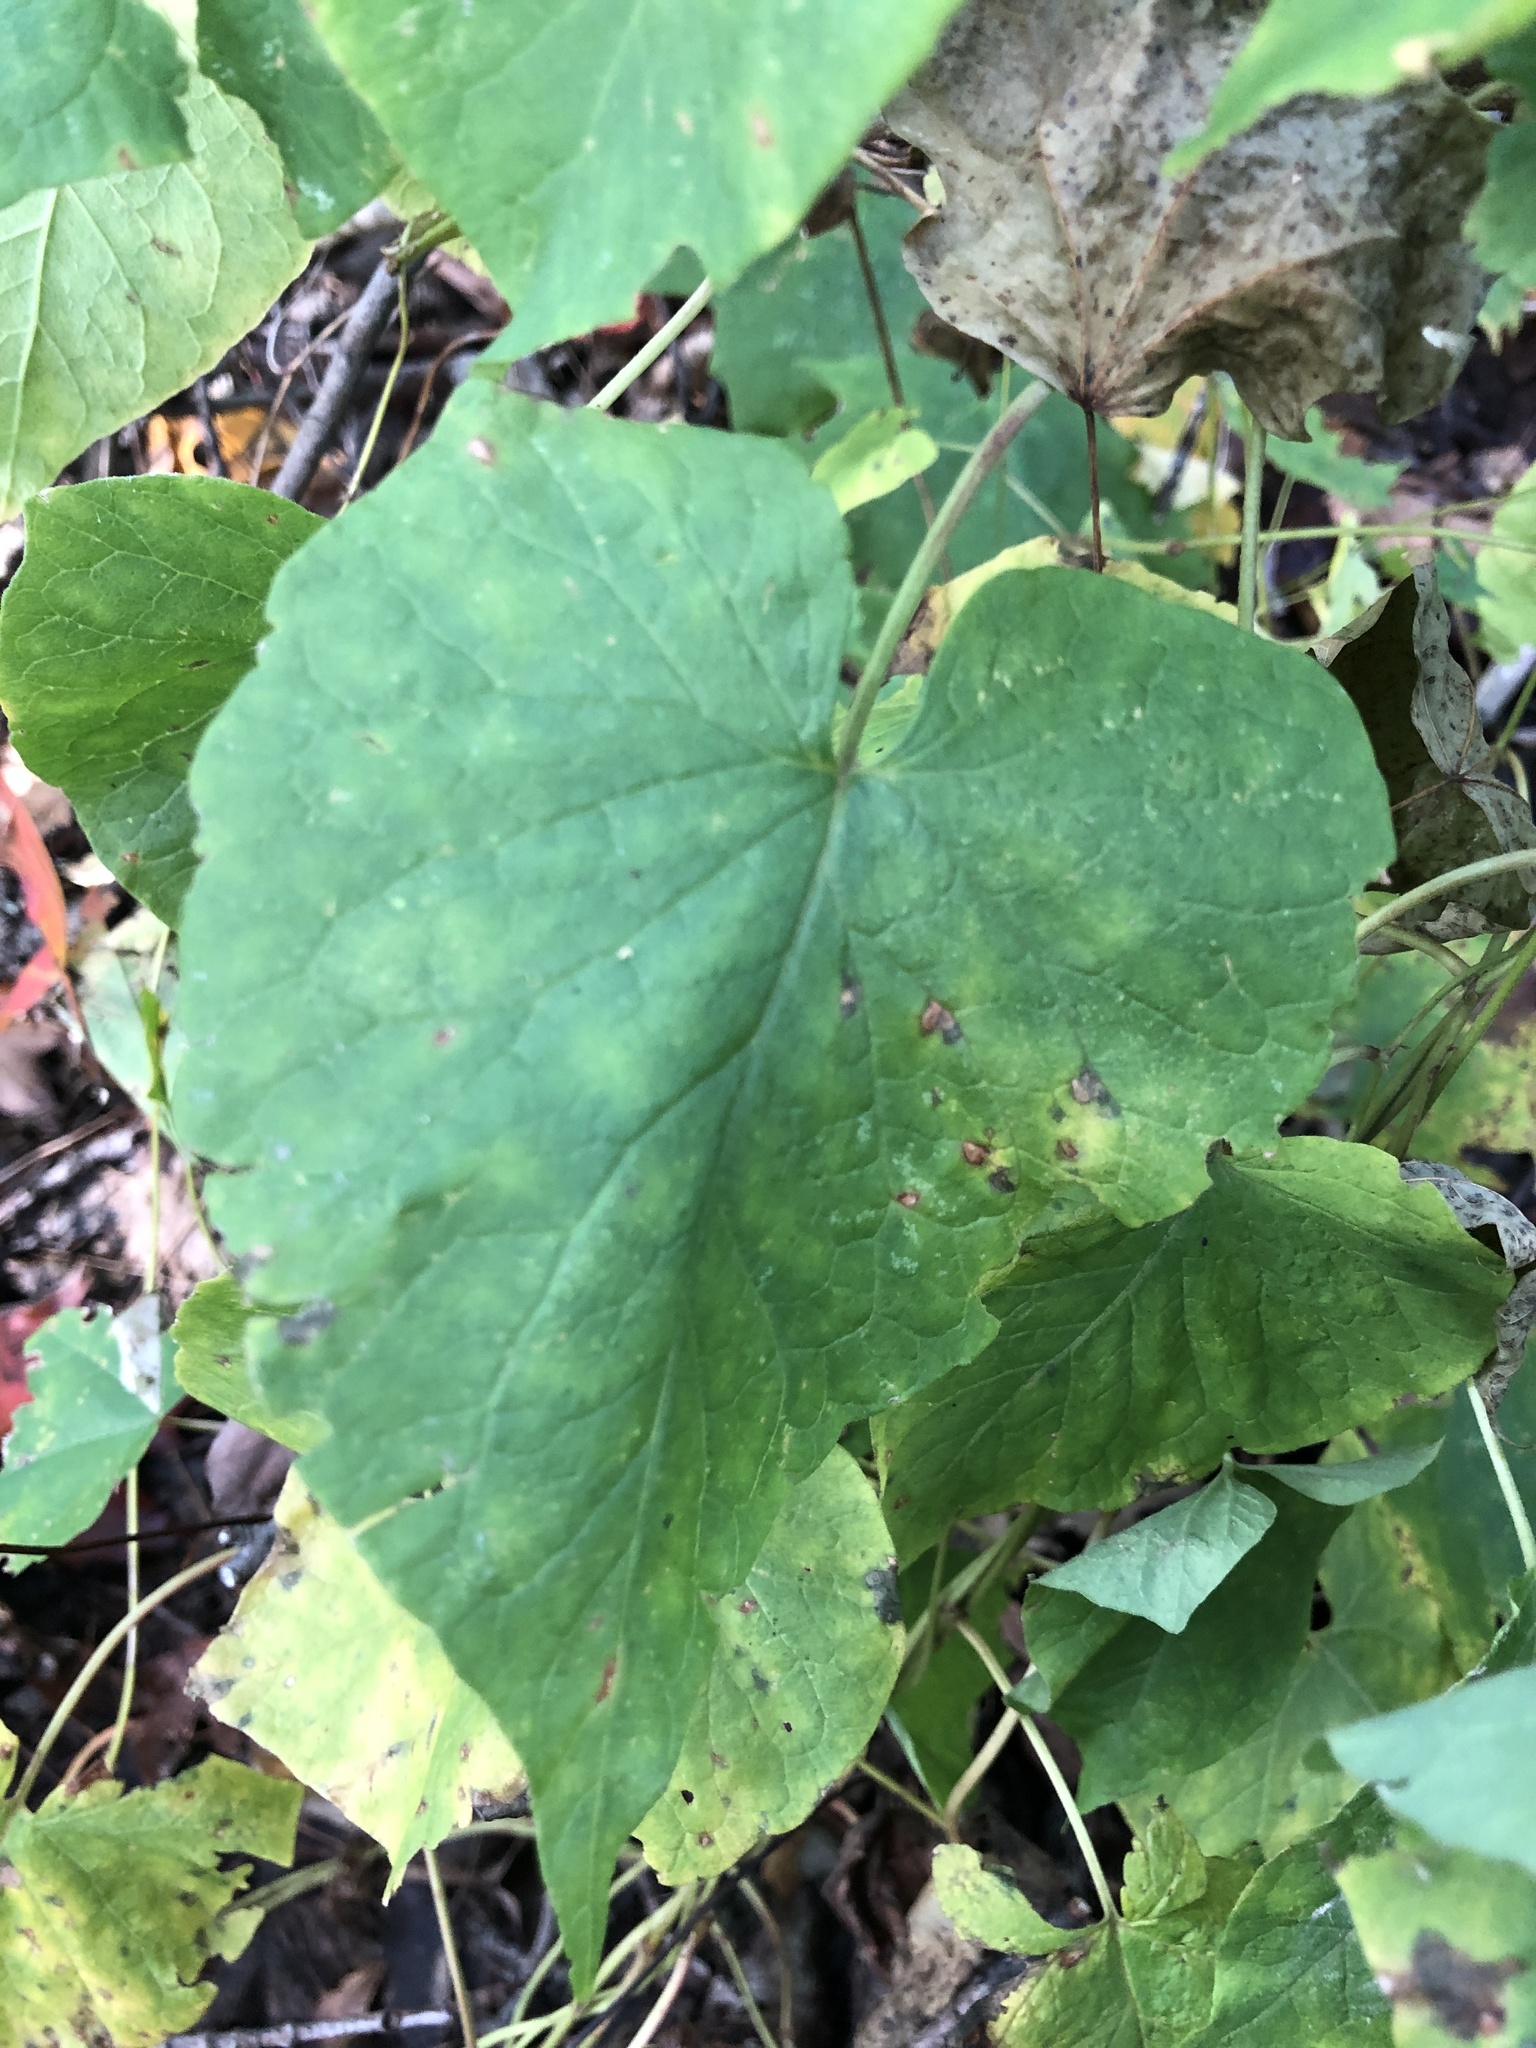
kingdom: Plantae
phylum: Tracheophyta
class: Magnoliopsida
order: Caryophyllales
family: Polygonaceae
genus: Parogonum
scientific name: Parogonum ciliinode
